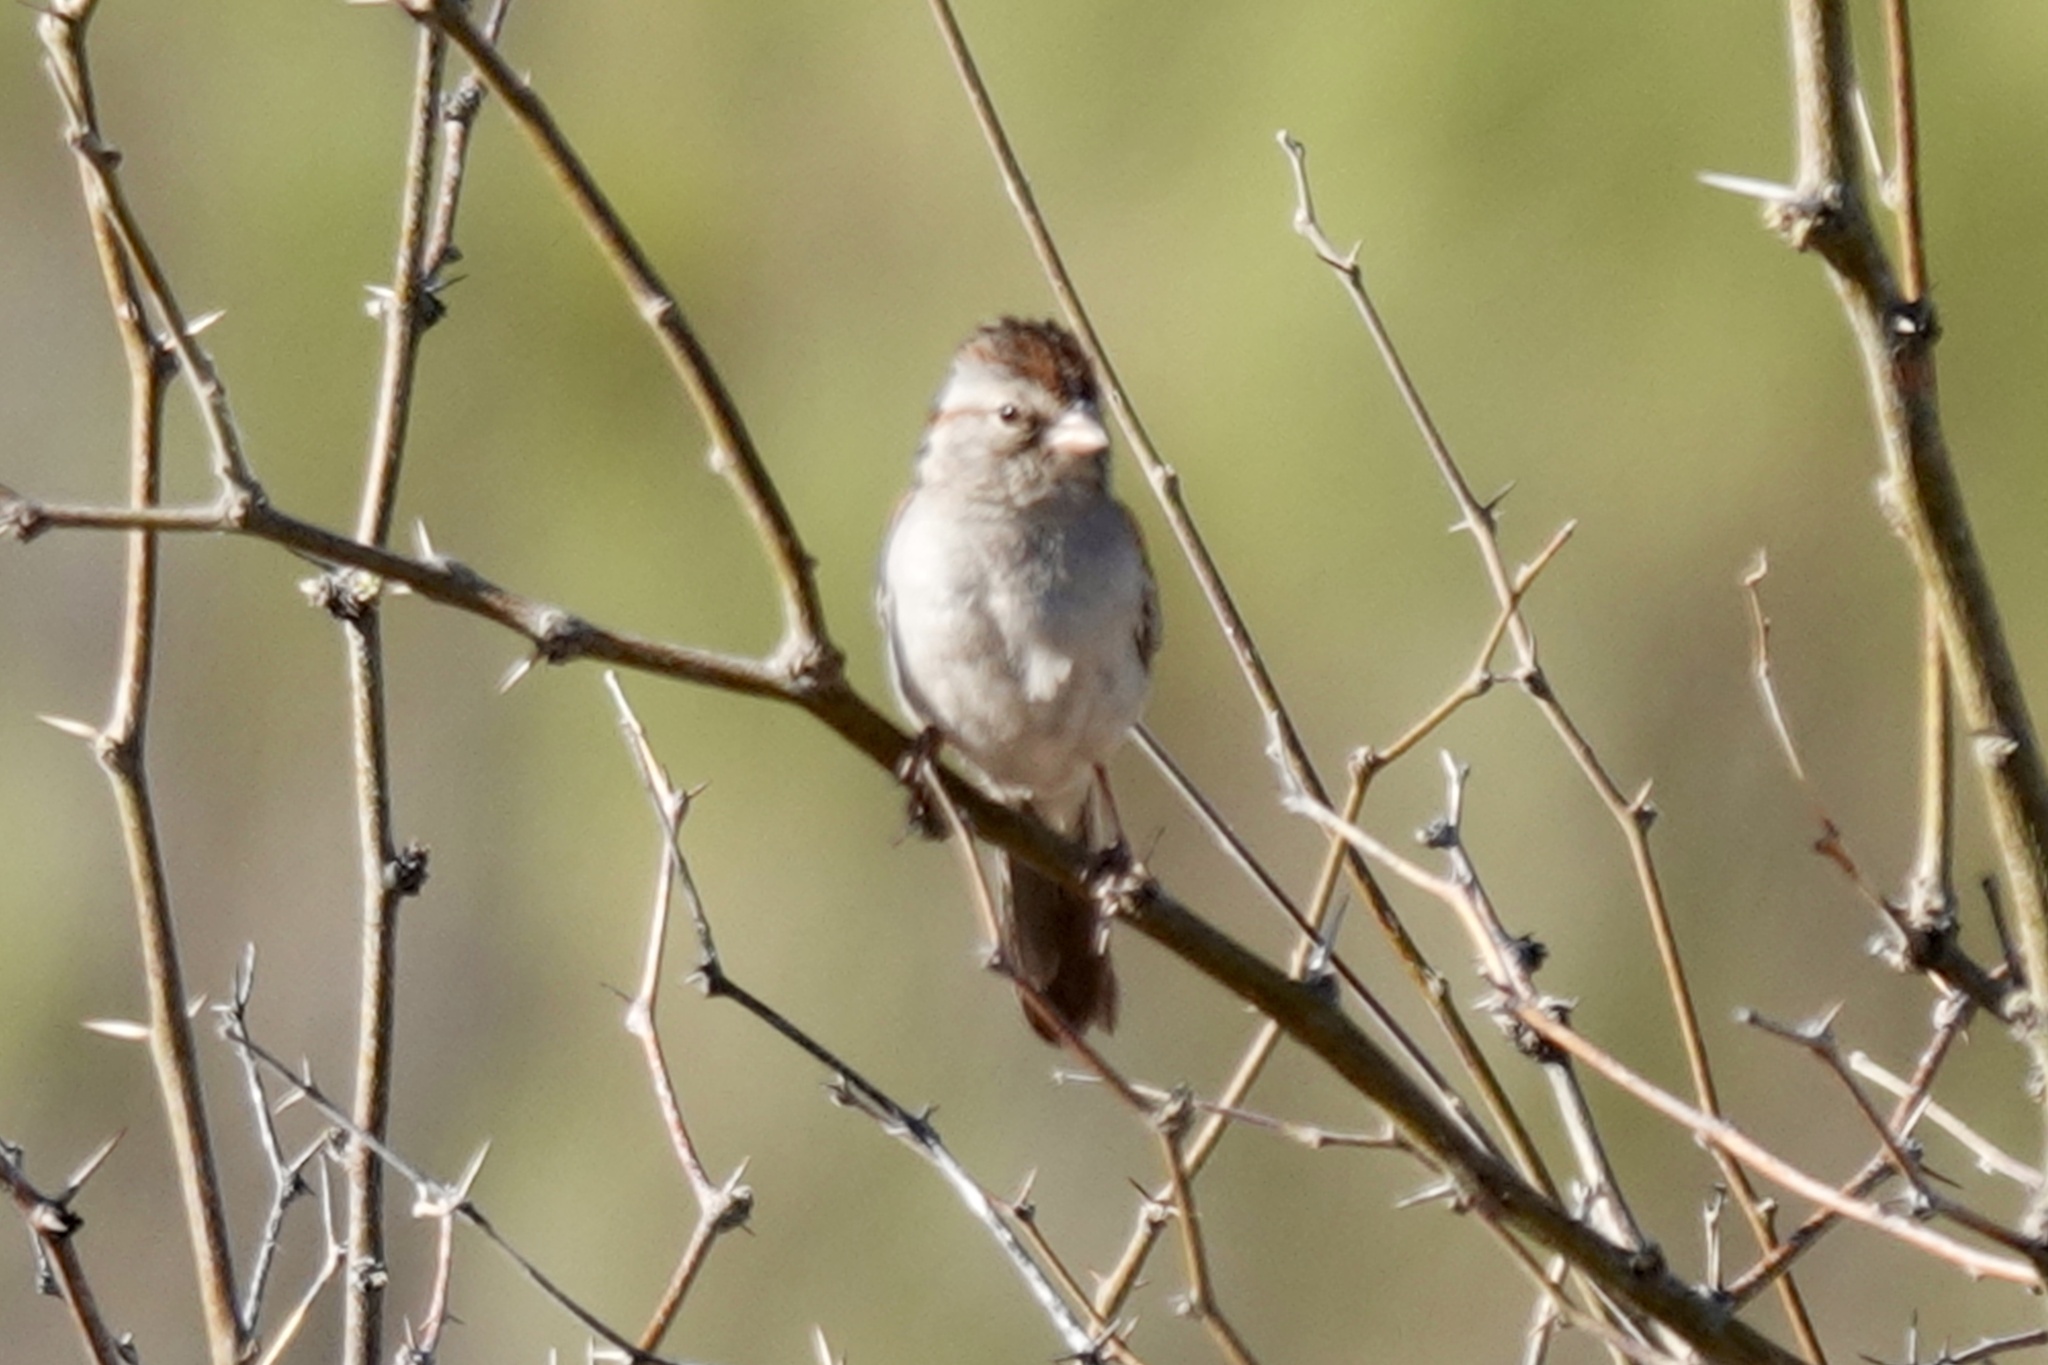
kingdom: Animalia
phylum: Chordata
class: Aves
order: Passeriformes
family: Passerellidae
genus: Peucaea
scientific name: Peucaea carpalis
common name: Rufous-winged sparrow
